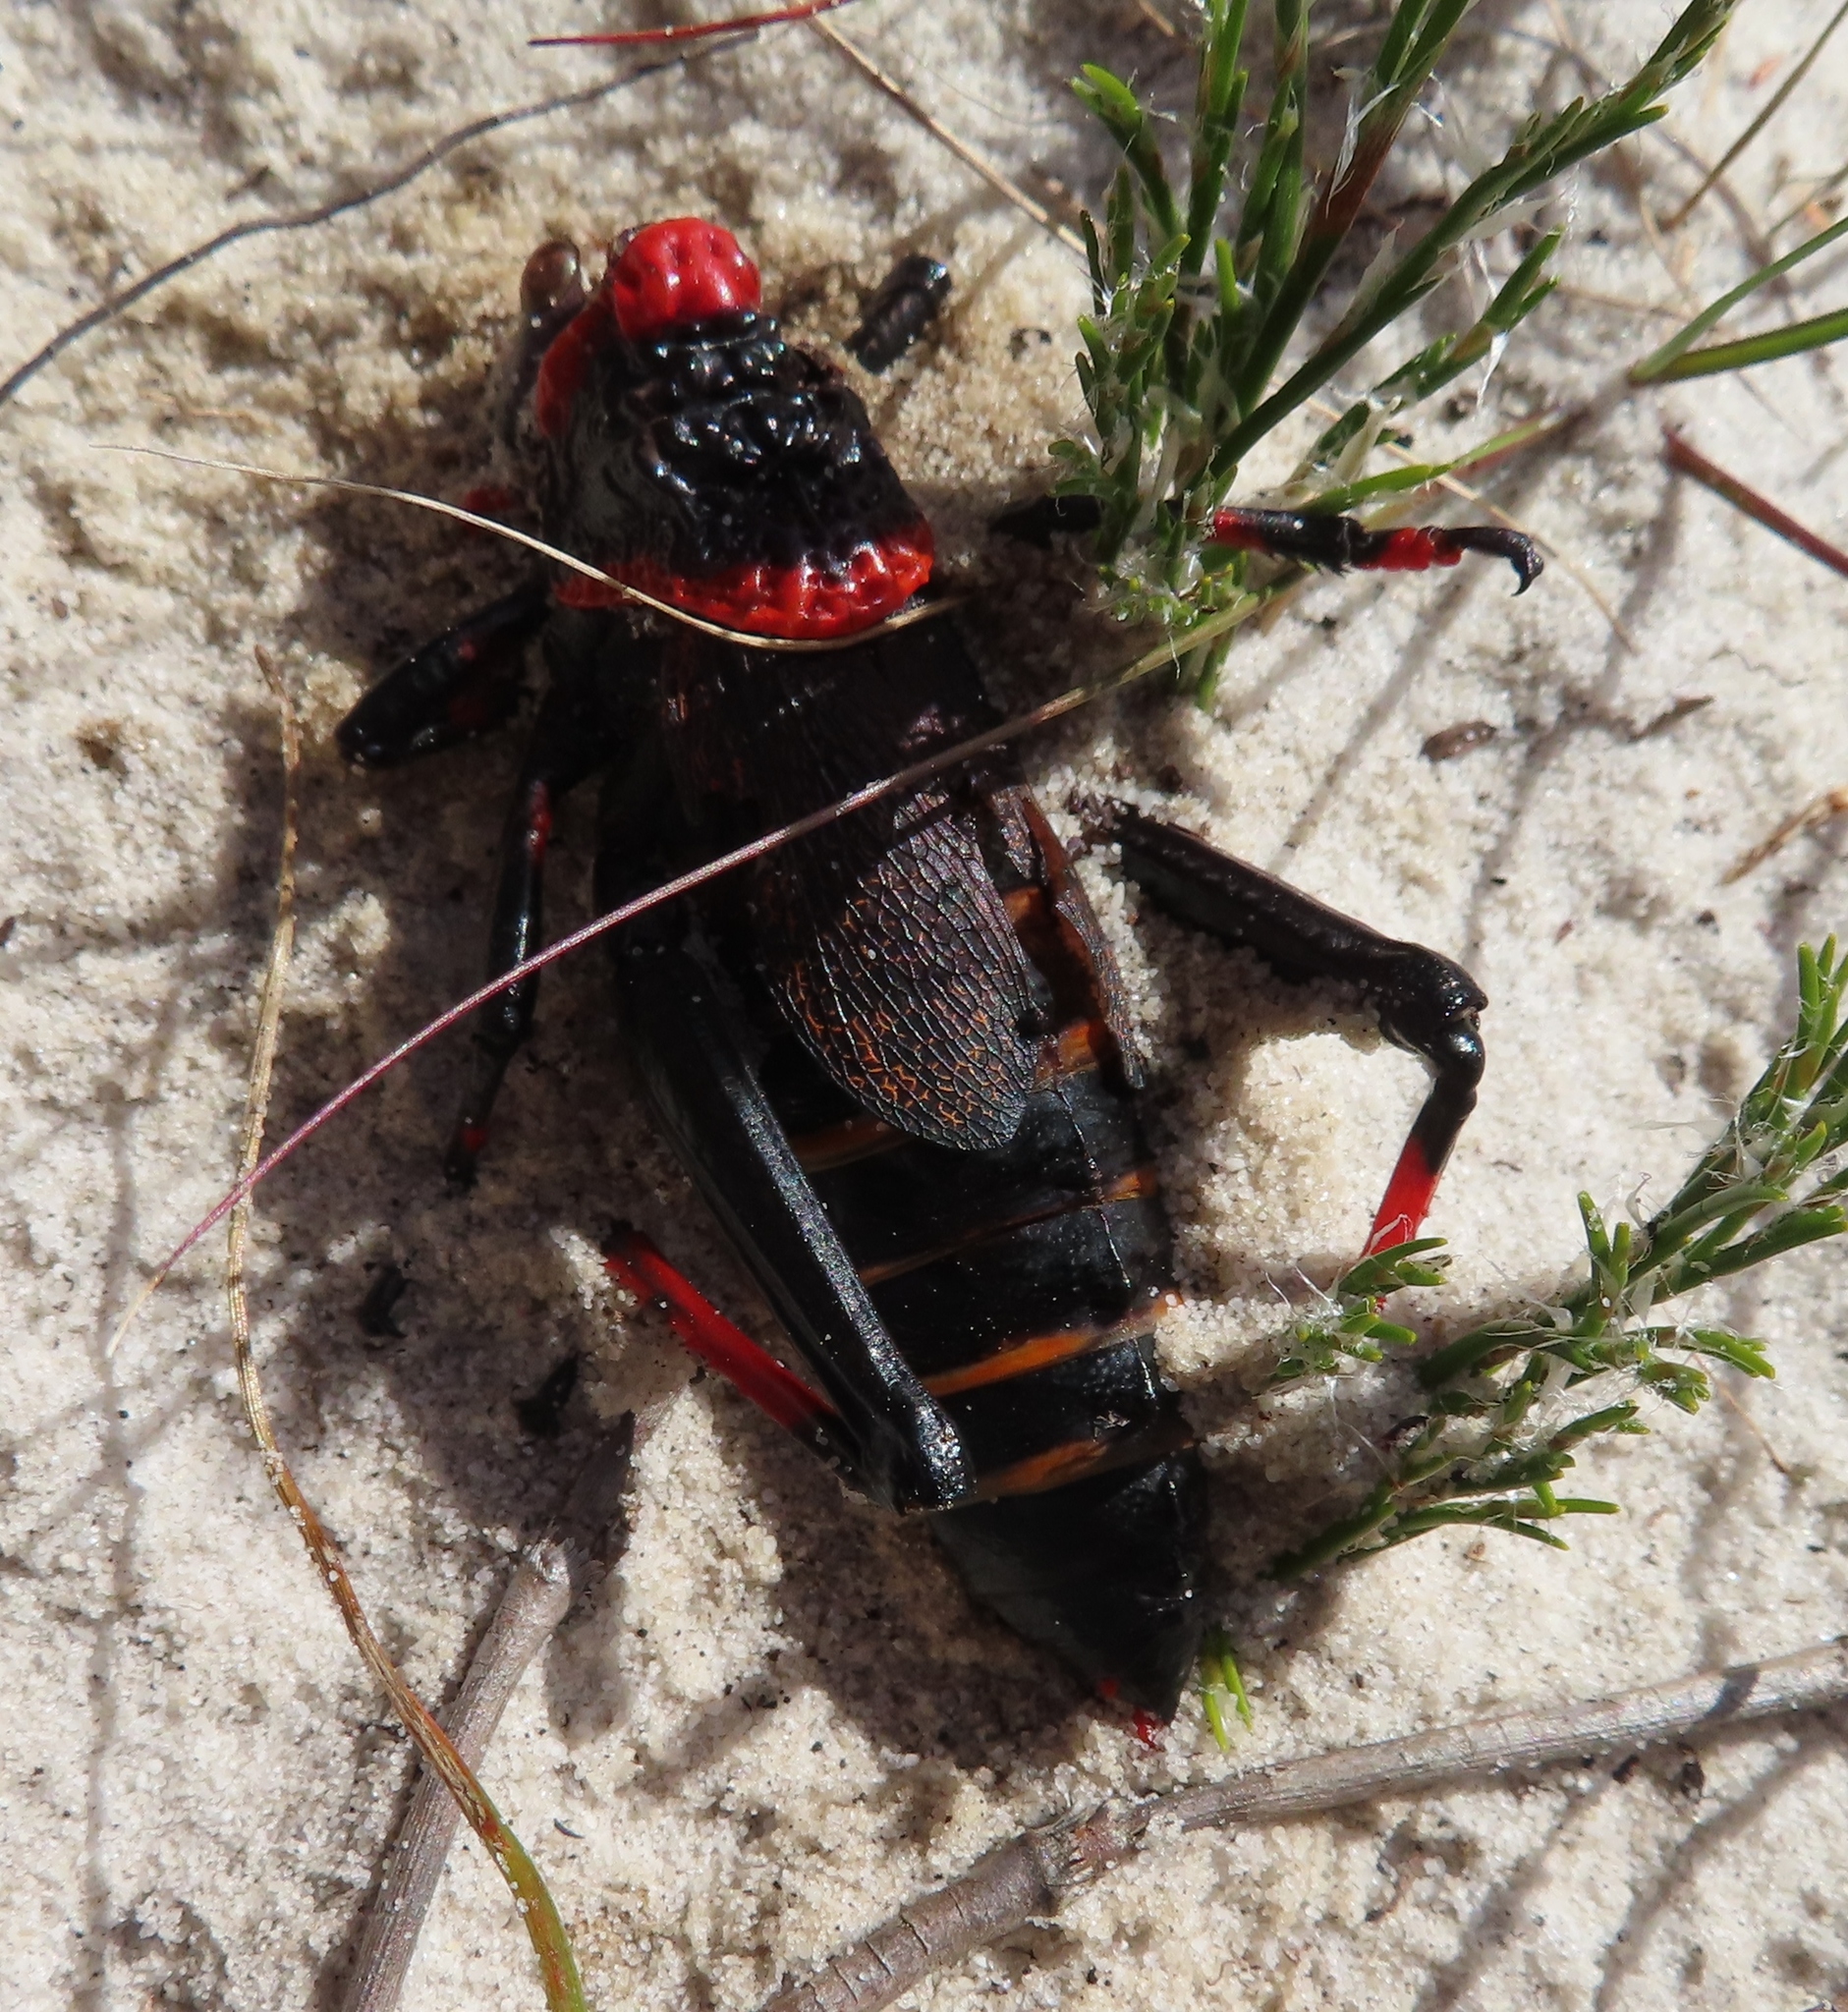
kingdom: Animalia
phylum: Arthropoda
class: Insecta
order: Orthoptera
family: Pyrgomorphidae
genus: Dictyophorus
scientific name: Dictyophorus spumans
